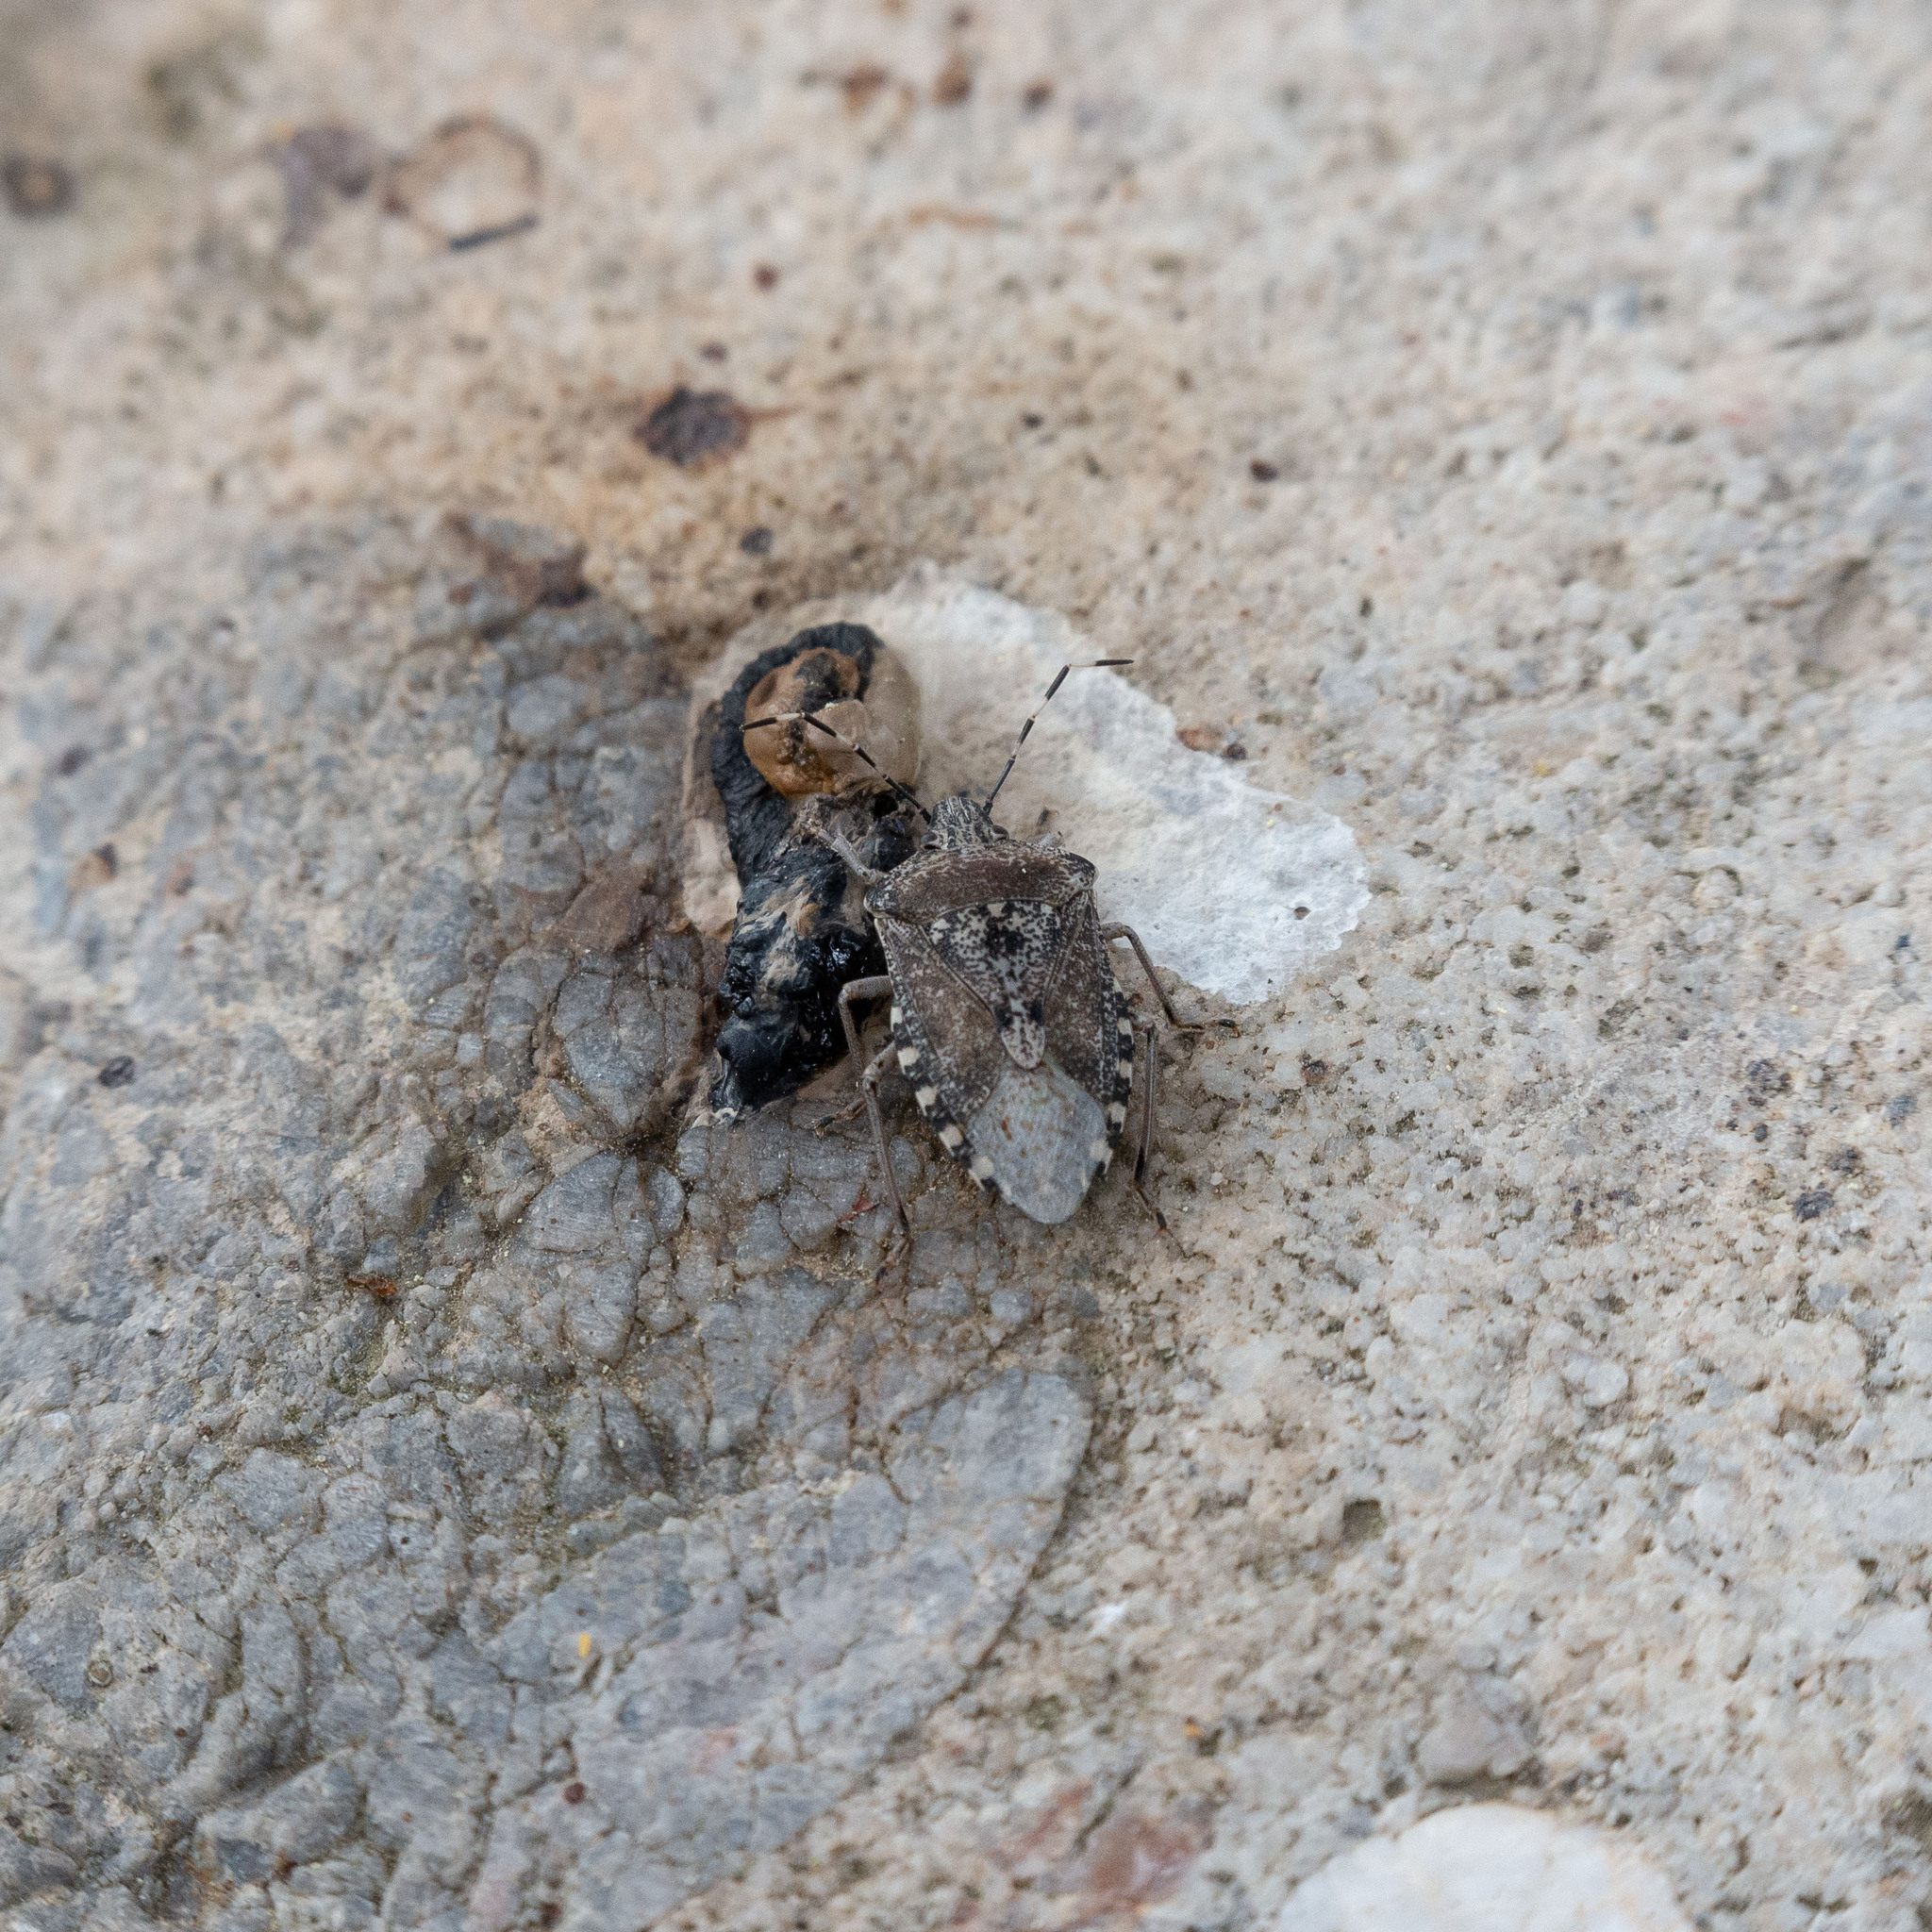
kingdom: Animalia
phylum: Arthropoda
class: Insecta
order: Hemiptera
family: Pentatomidae
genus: Rhaphigaster
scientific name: Rhaphigaster nebulosa
